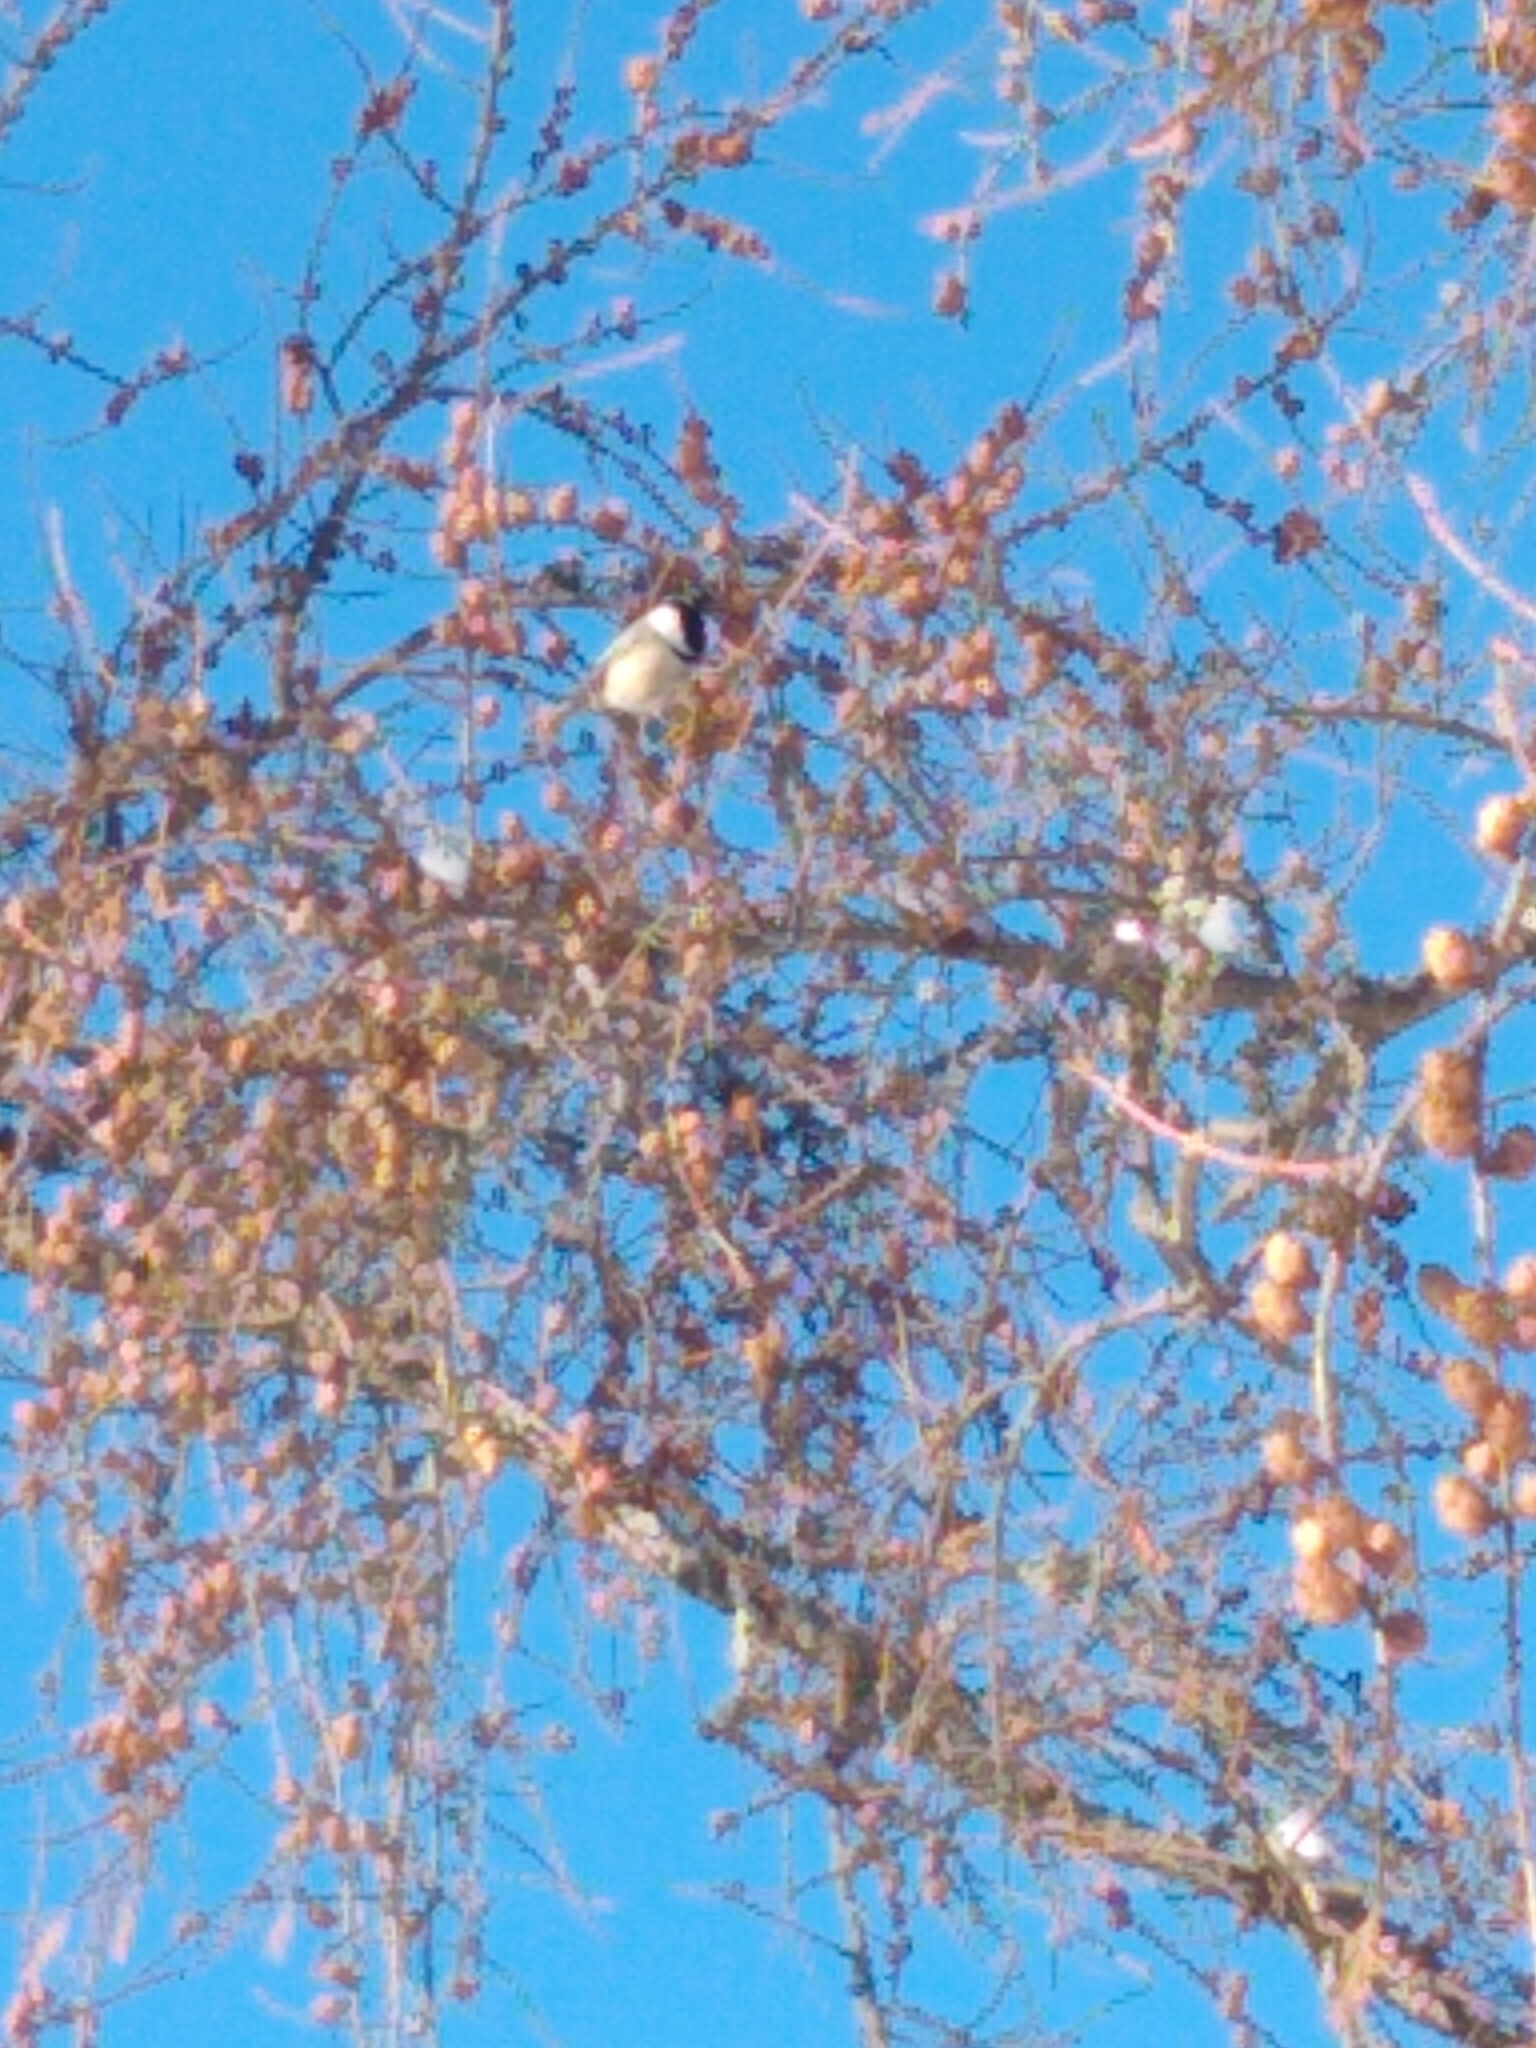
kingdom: Animalia
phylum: Chordata
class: Aves
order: Passeriformes
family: Paridae
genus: Poecile
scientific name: Poecile atricapillus
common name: Black-capped chickadee
